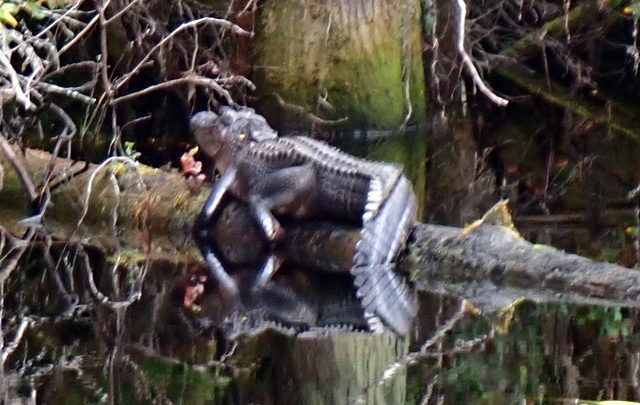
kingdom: Animalia
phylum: Chordata
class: Crocodylia
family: Alligatoridae
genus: Alligator
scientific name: Alligator mississippiensis
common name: American alligator
